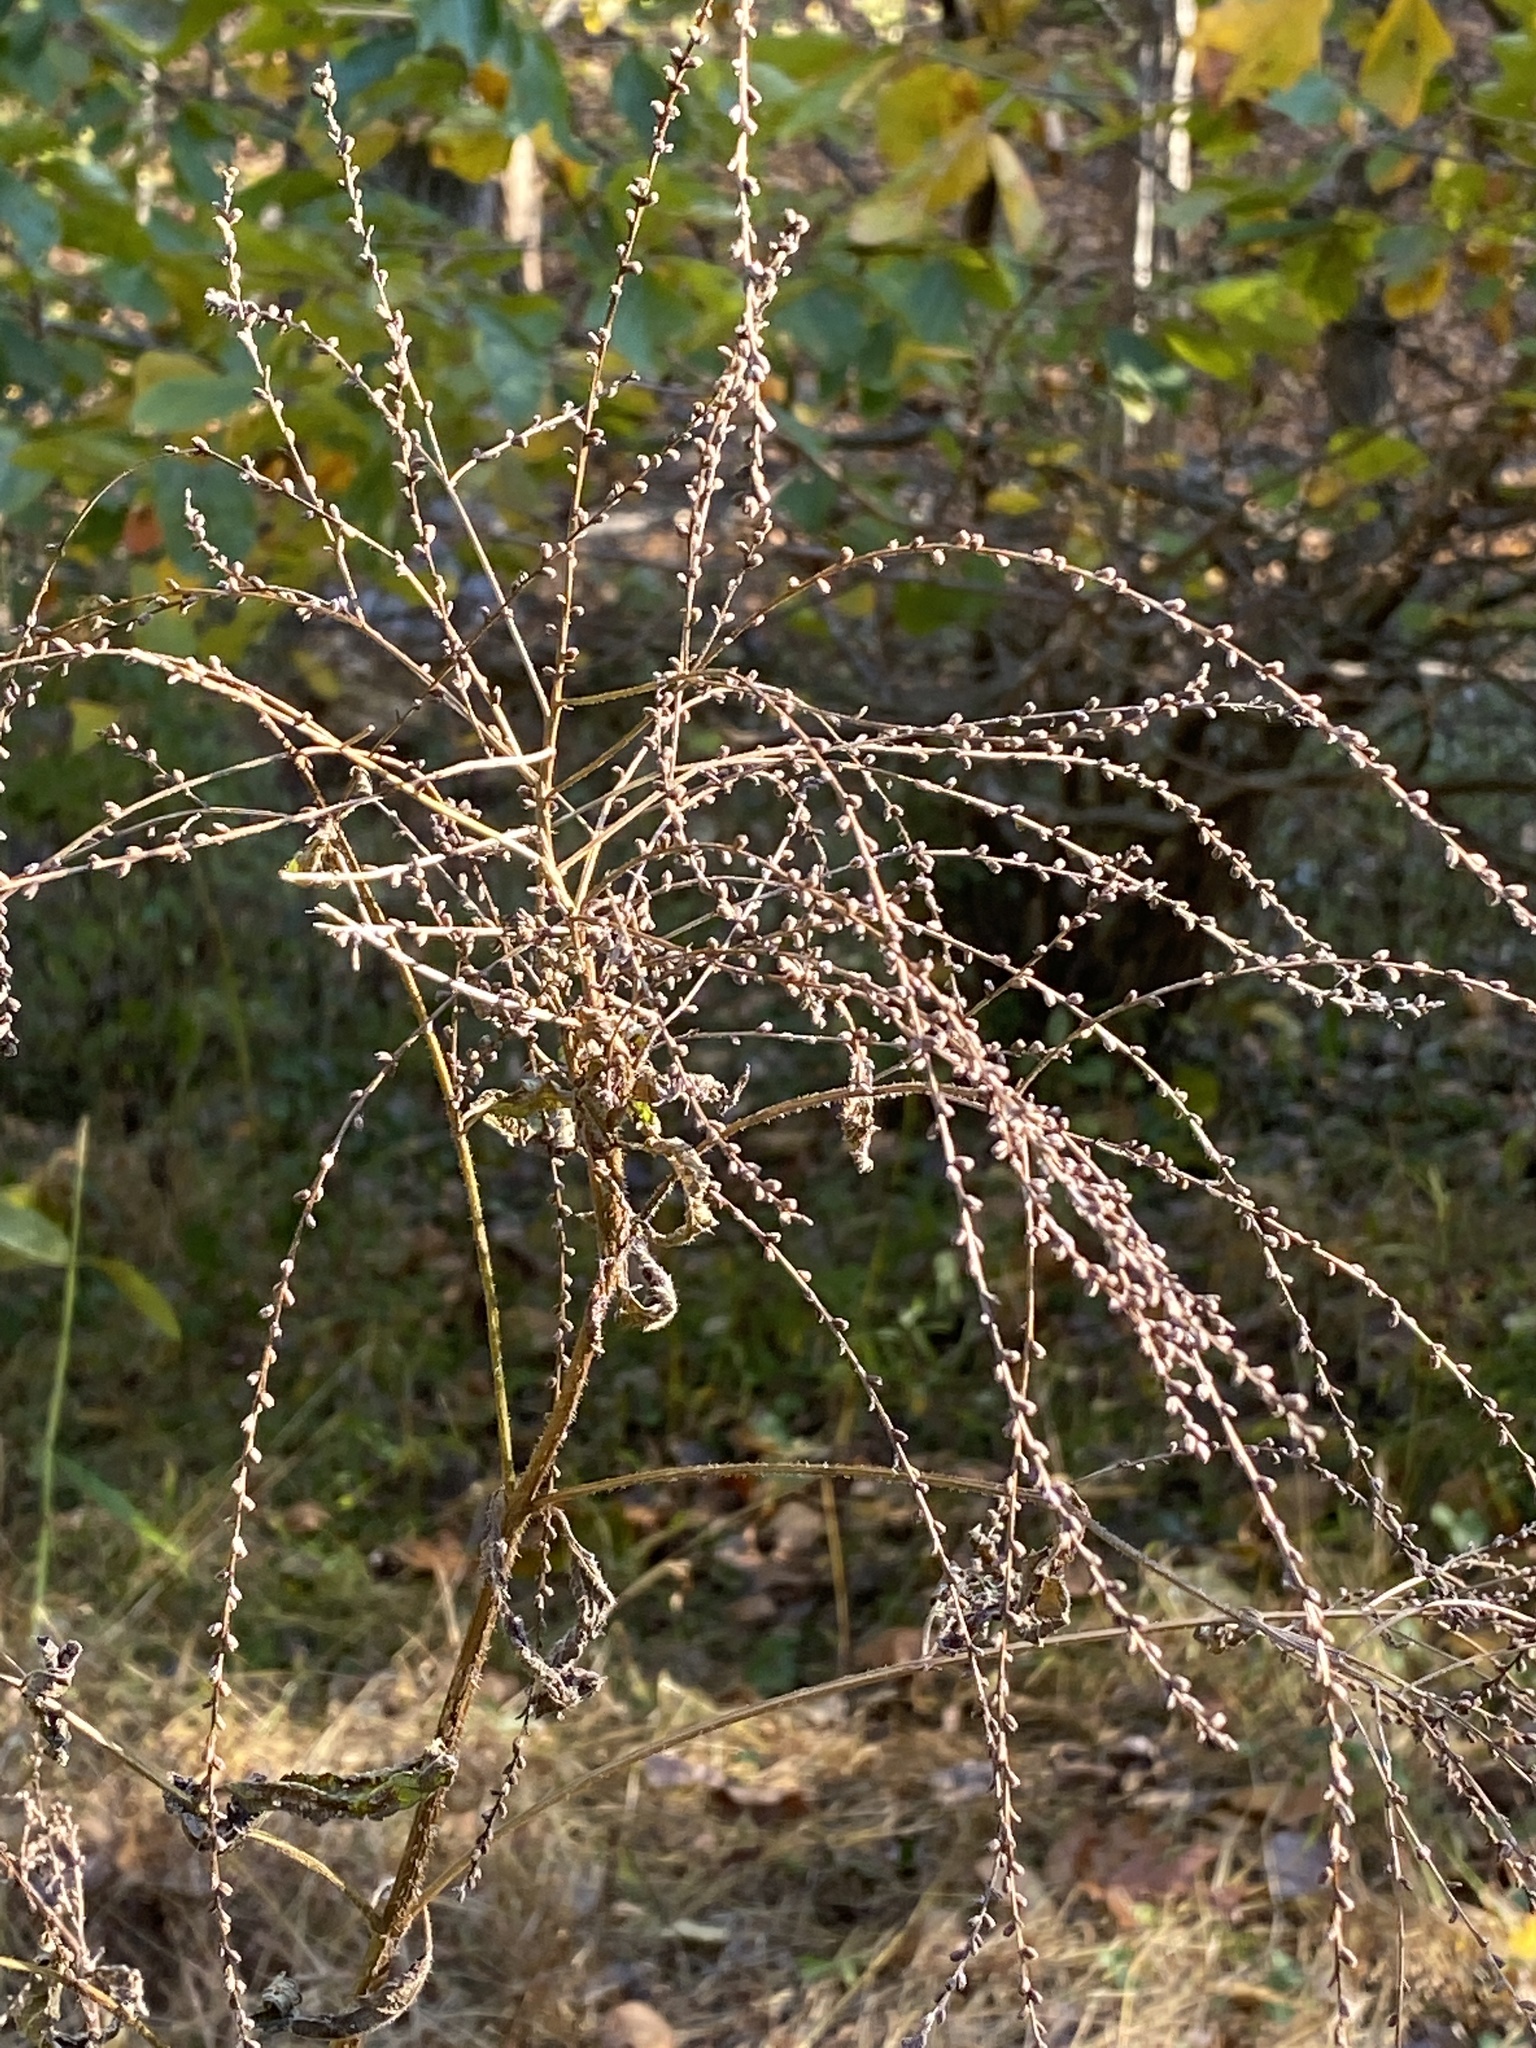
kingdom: Plantae
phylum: Tracheophyta
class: Magnoliopsida
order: Lamiales
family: Verbenaceae
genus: Verbena
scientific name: Verbena urticifolia
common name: Nettle-leaved vervain
